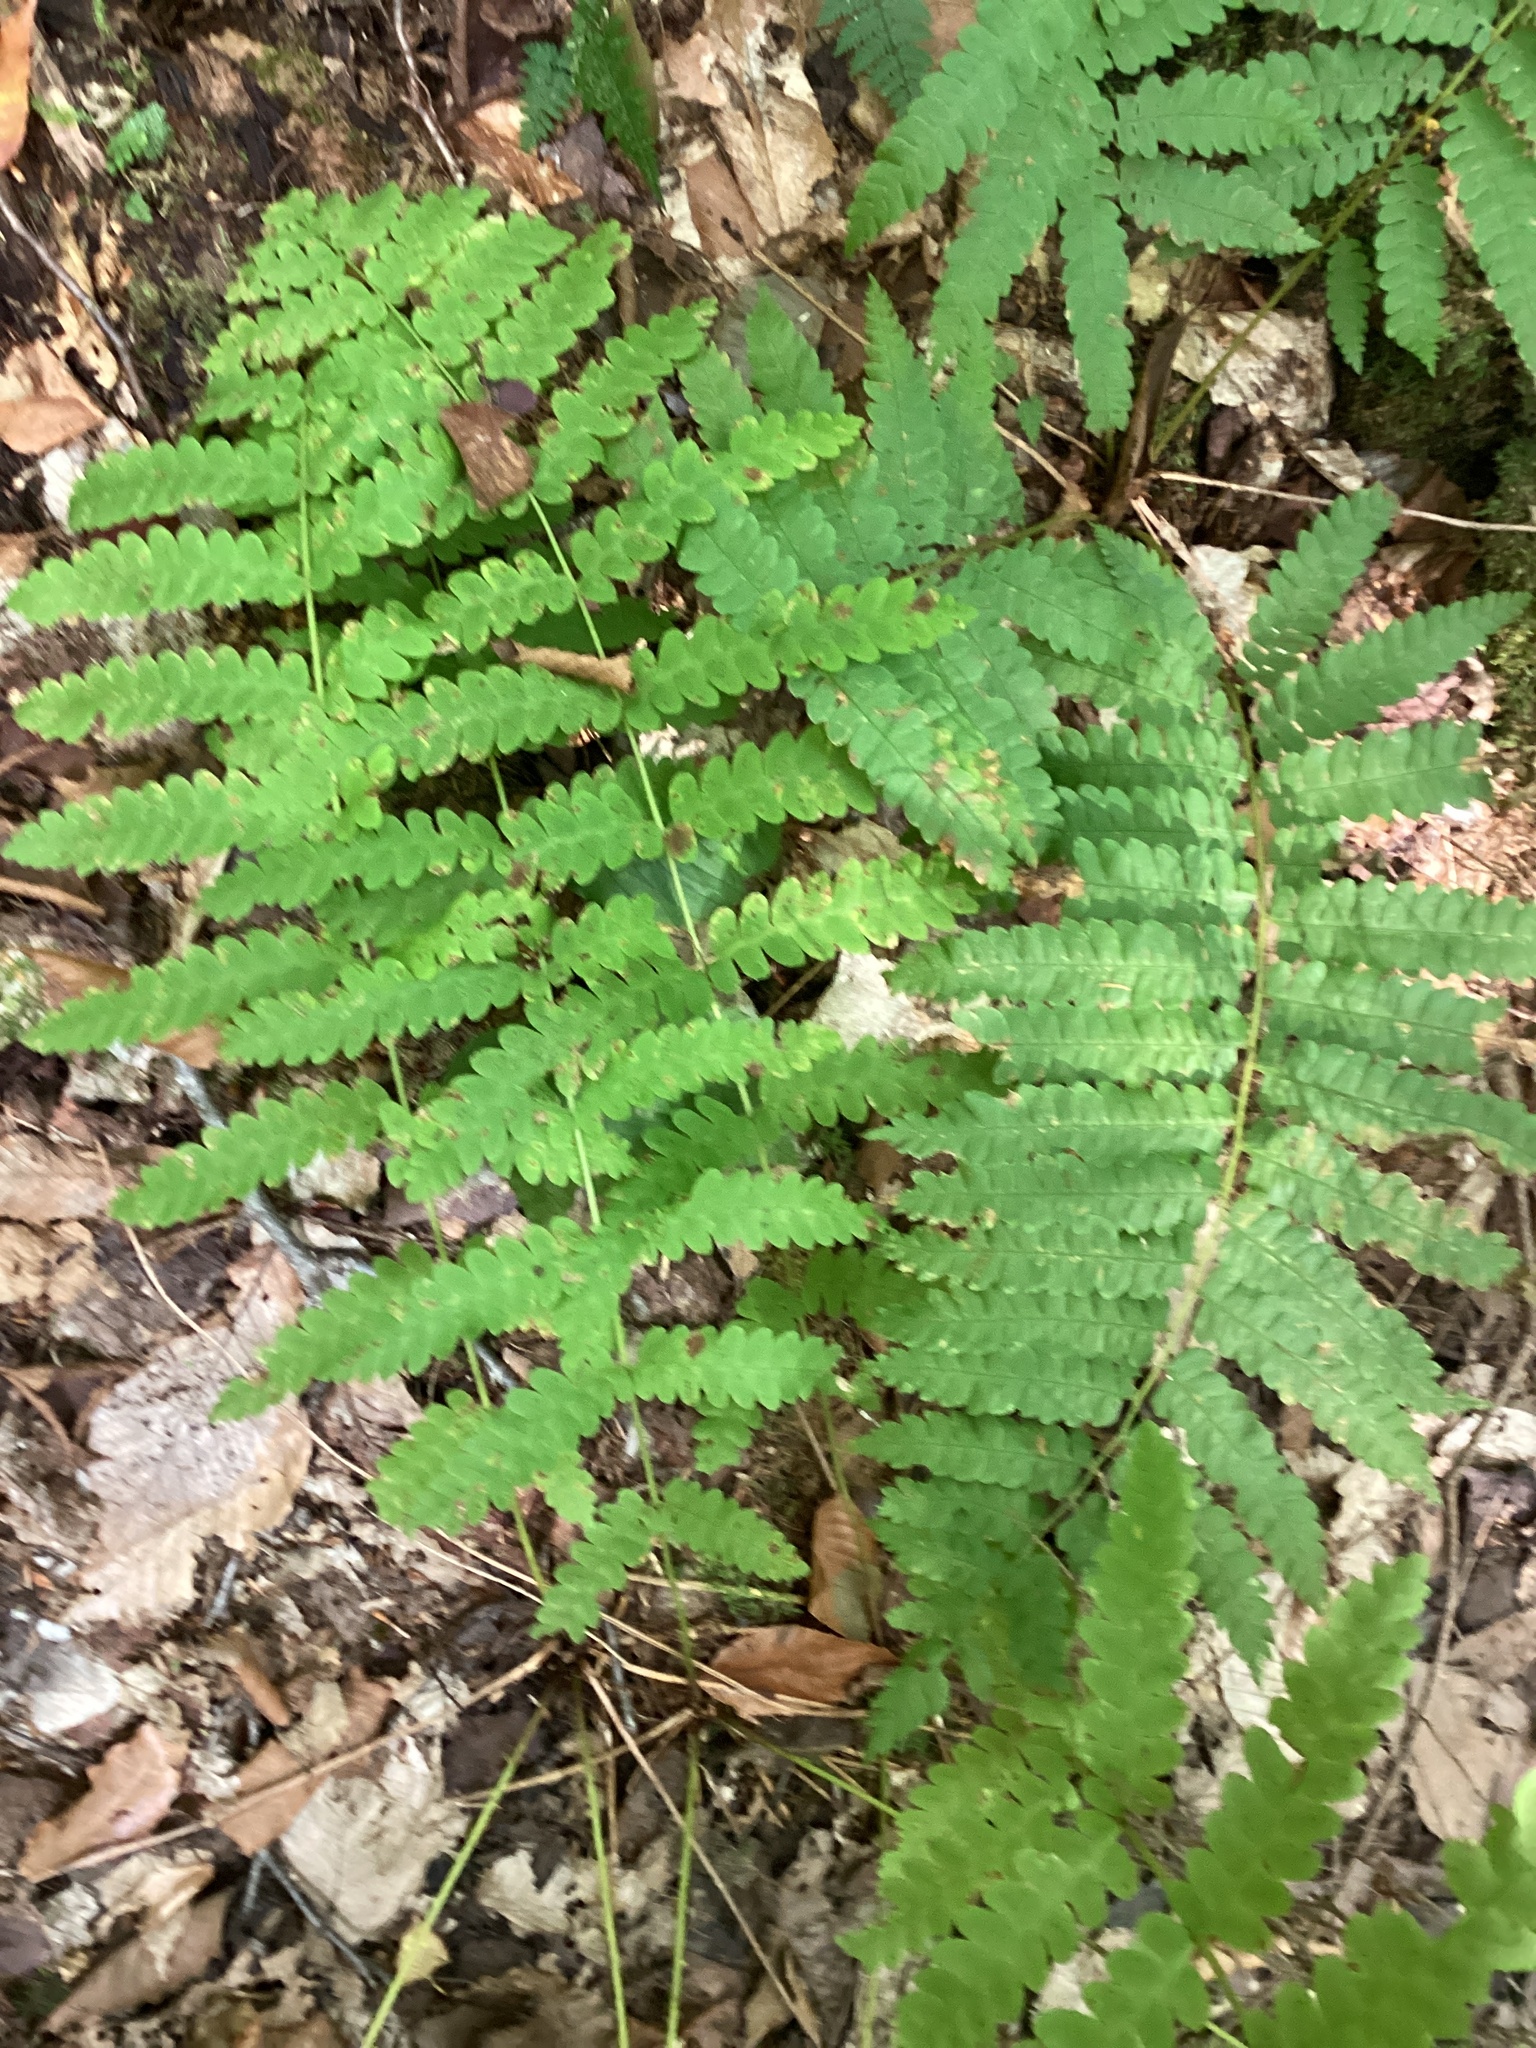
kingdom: Plantae
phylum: Tracheophyta
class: Polypodiopsida
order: Osmundales
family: Osmundaceae
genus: Claytosmunda
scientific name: Claytosmunda claytoniana
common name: Clayton's fern
